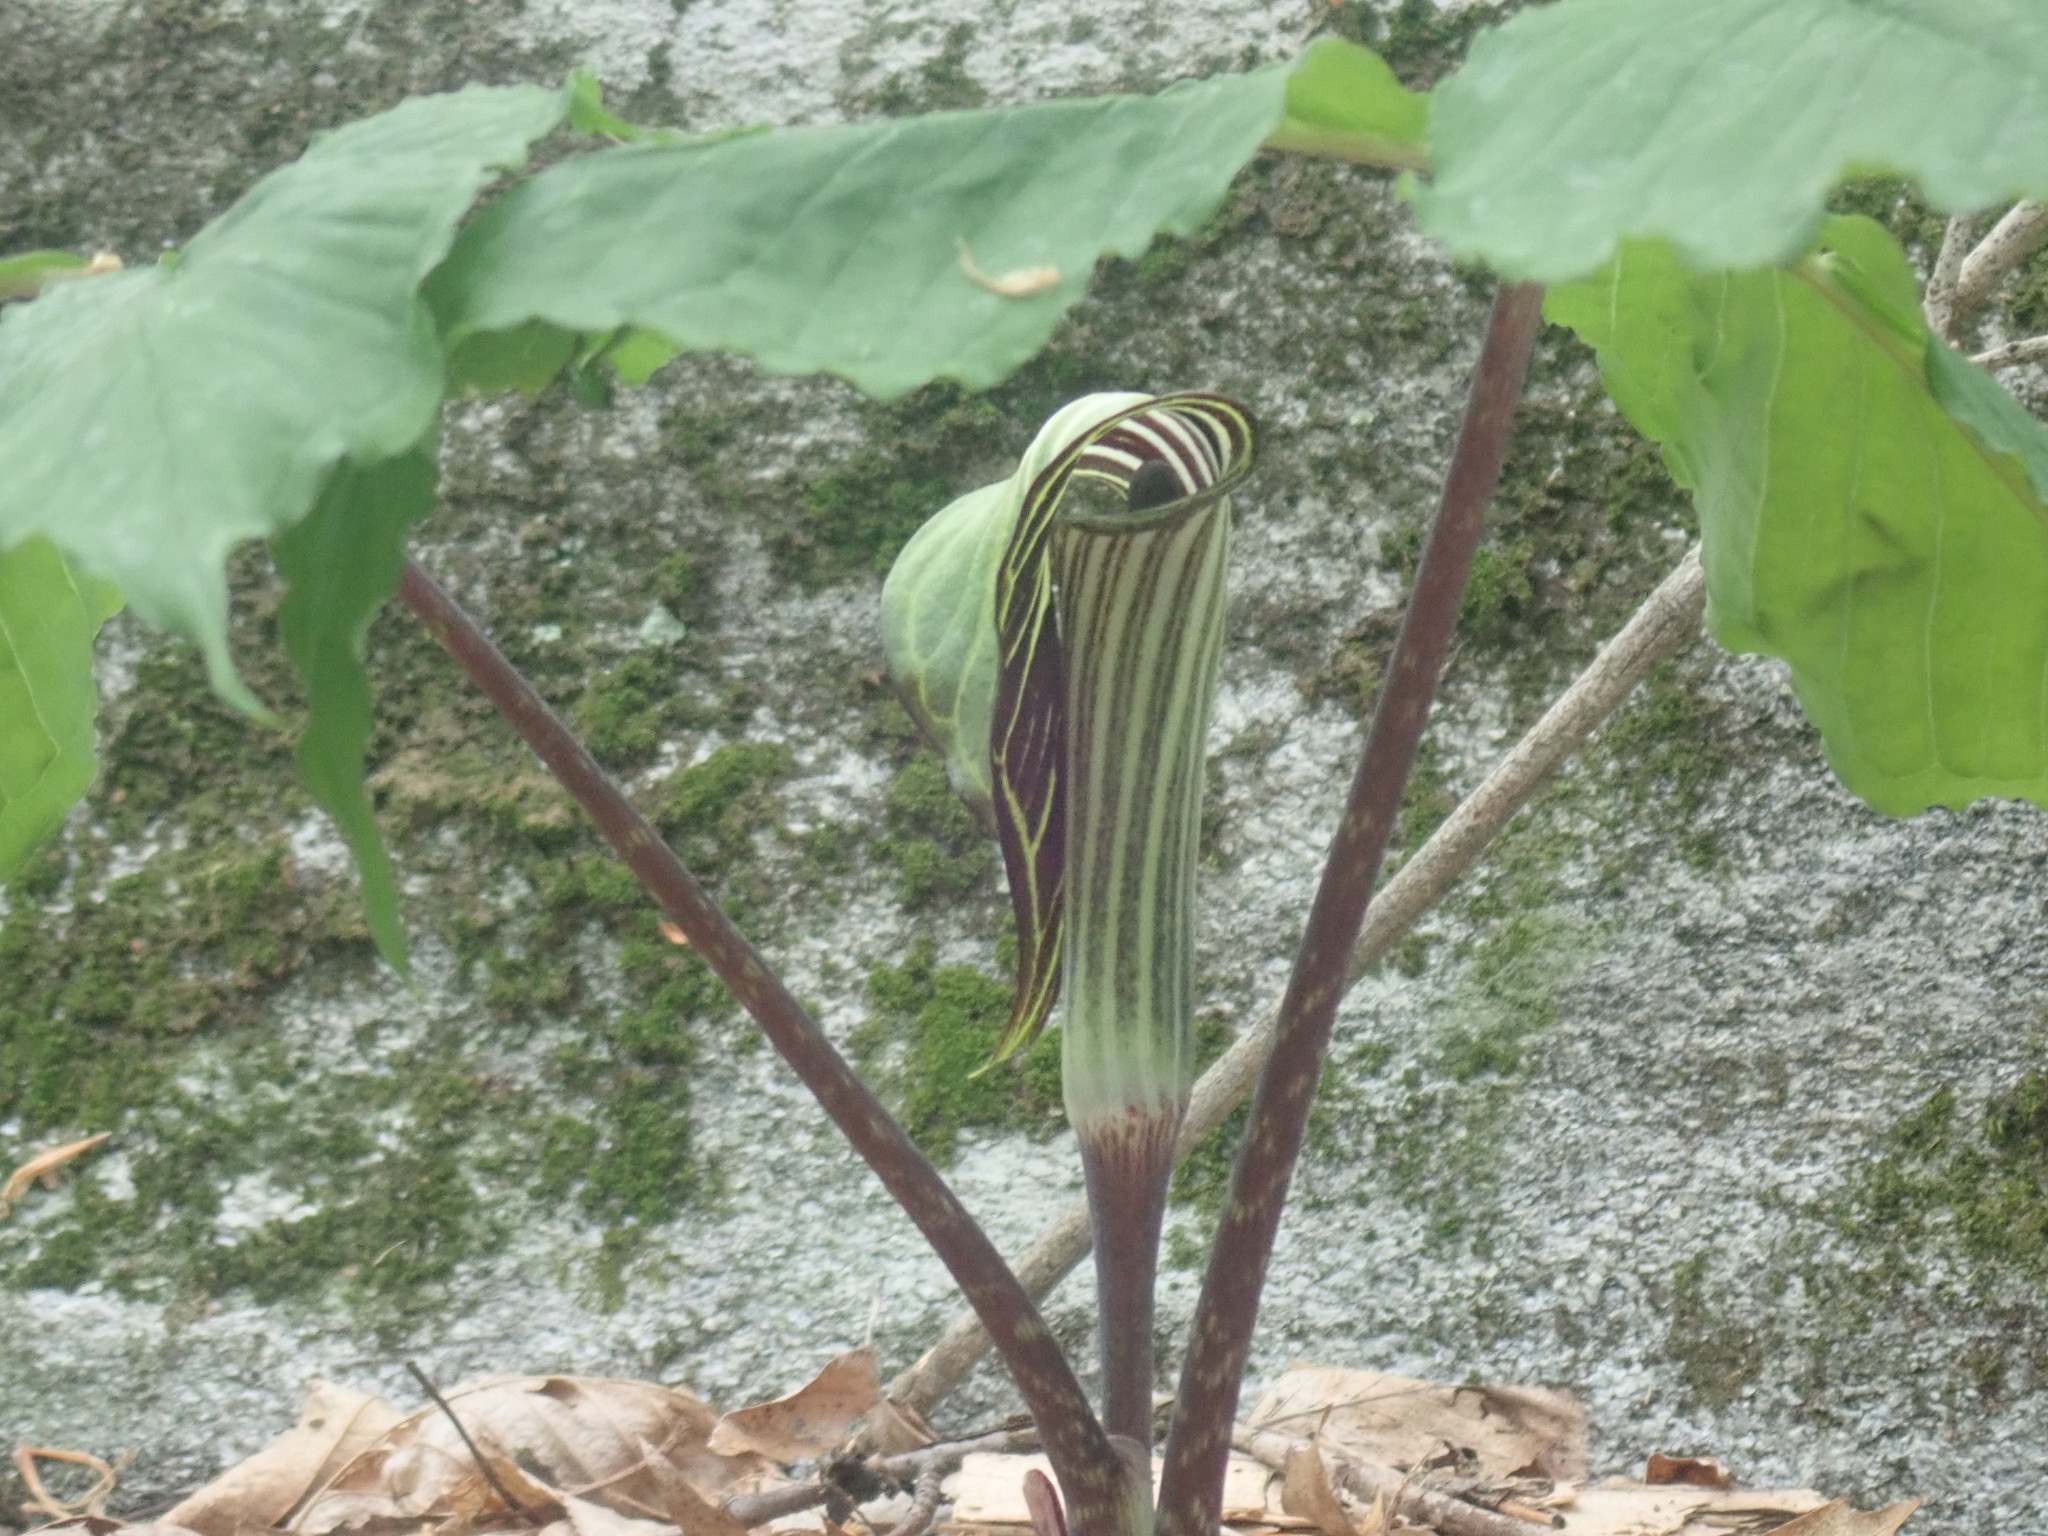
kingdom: Plantae
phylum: Tracheophyta
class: Liliopsida
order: Alismatales
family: Araceae
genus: Arisaema
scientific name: Arisaema triphyllum
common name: Jack-in-the-pulpit
